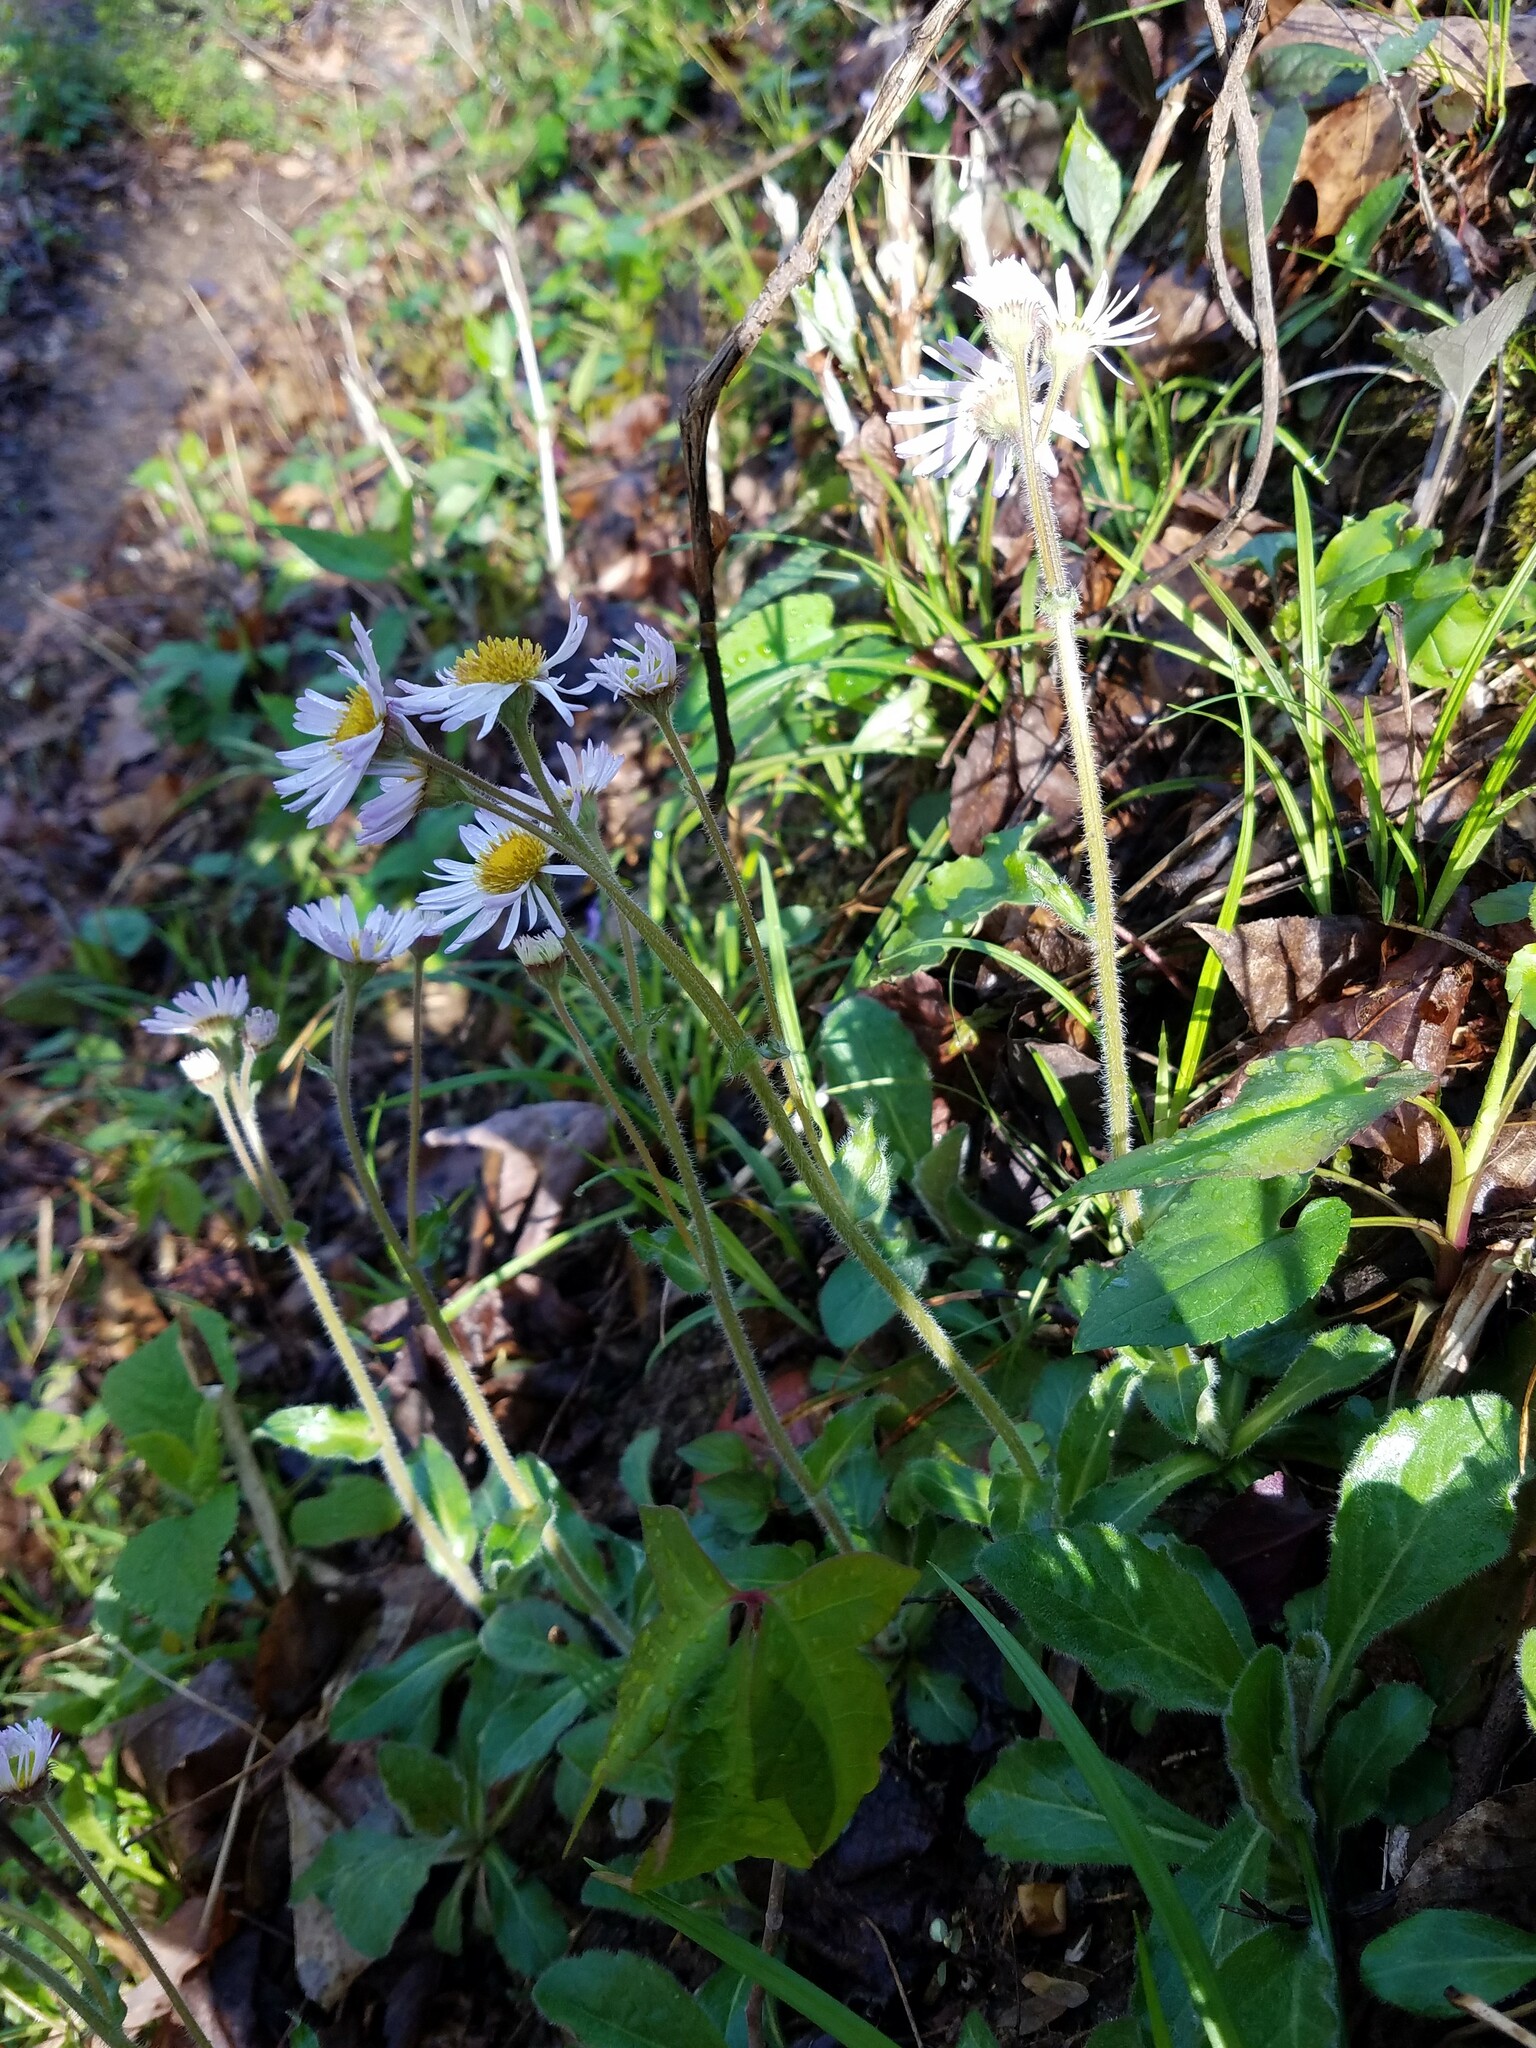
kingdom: Plantae
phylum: Tracheophyta
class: Magnoliopsida
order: Asterales
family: Asteraceae
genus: Erigeron
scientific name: Erigeron pulchellus
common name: Hairy fleabane
